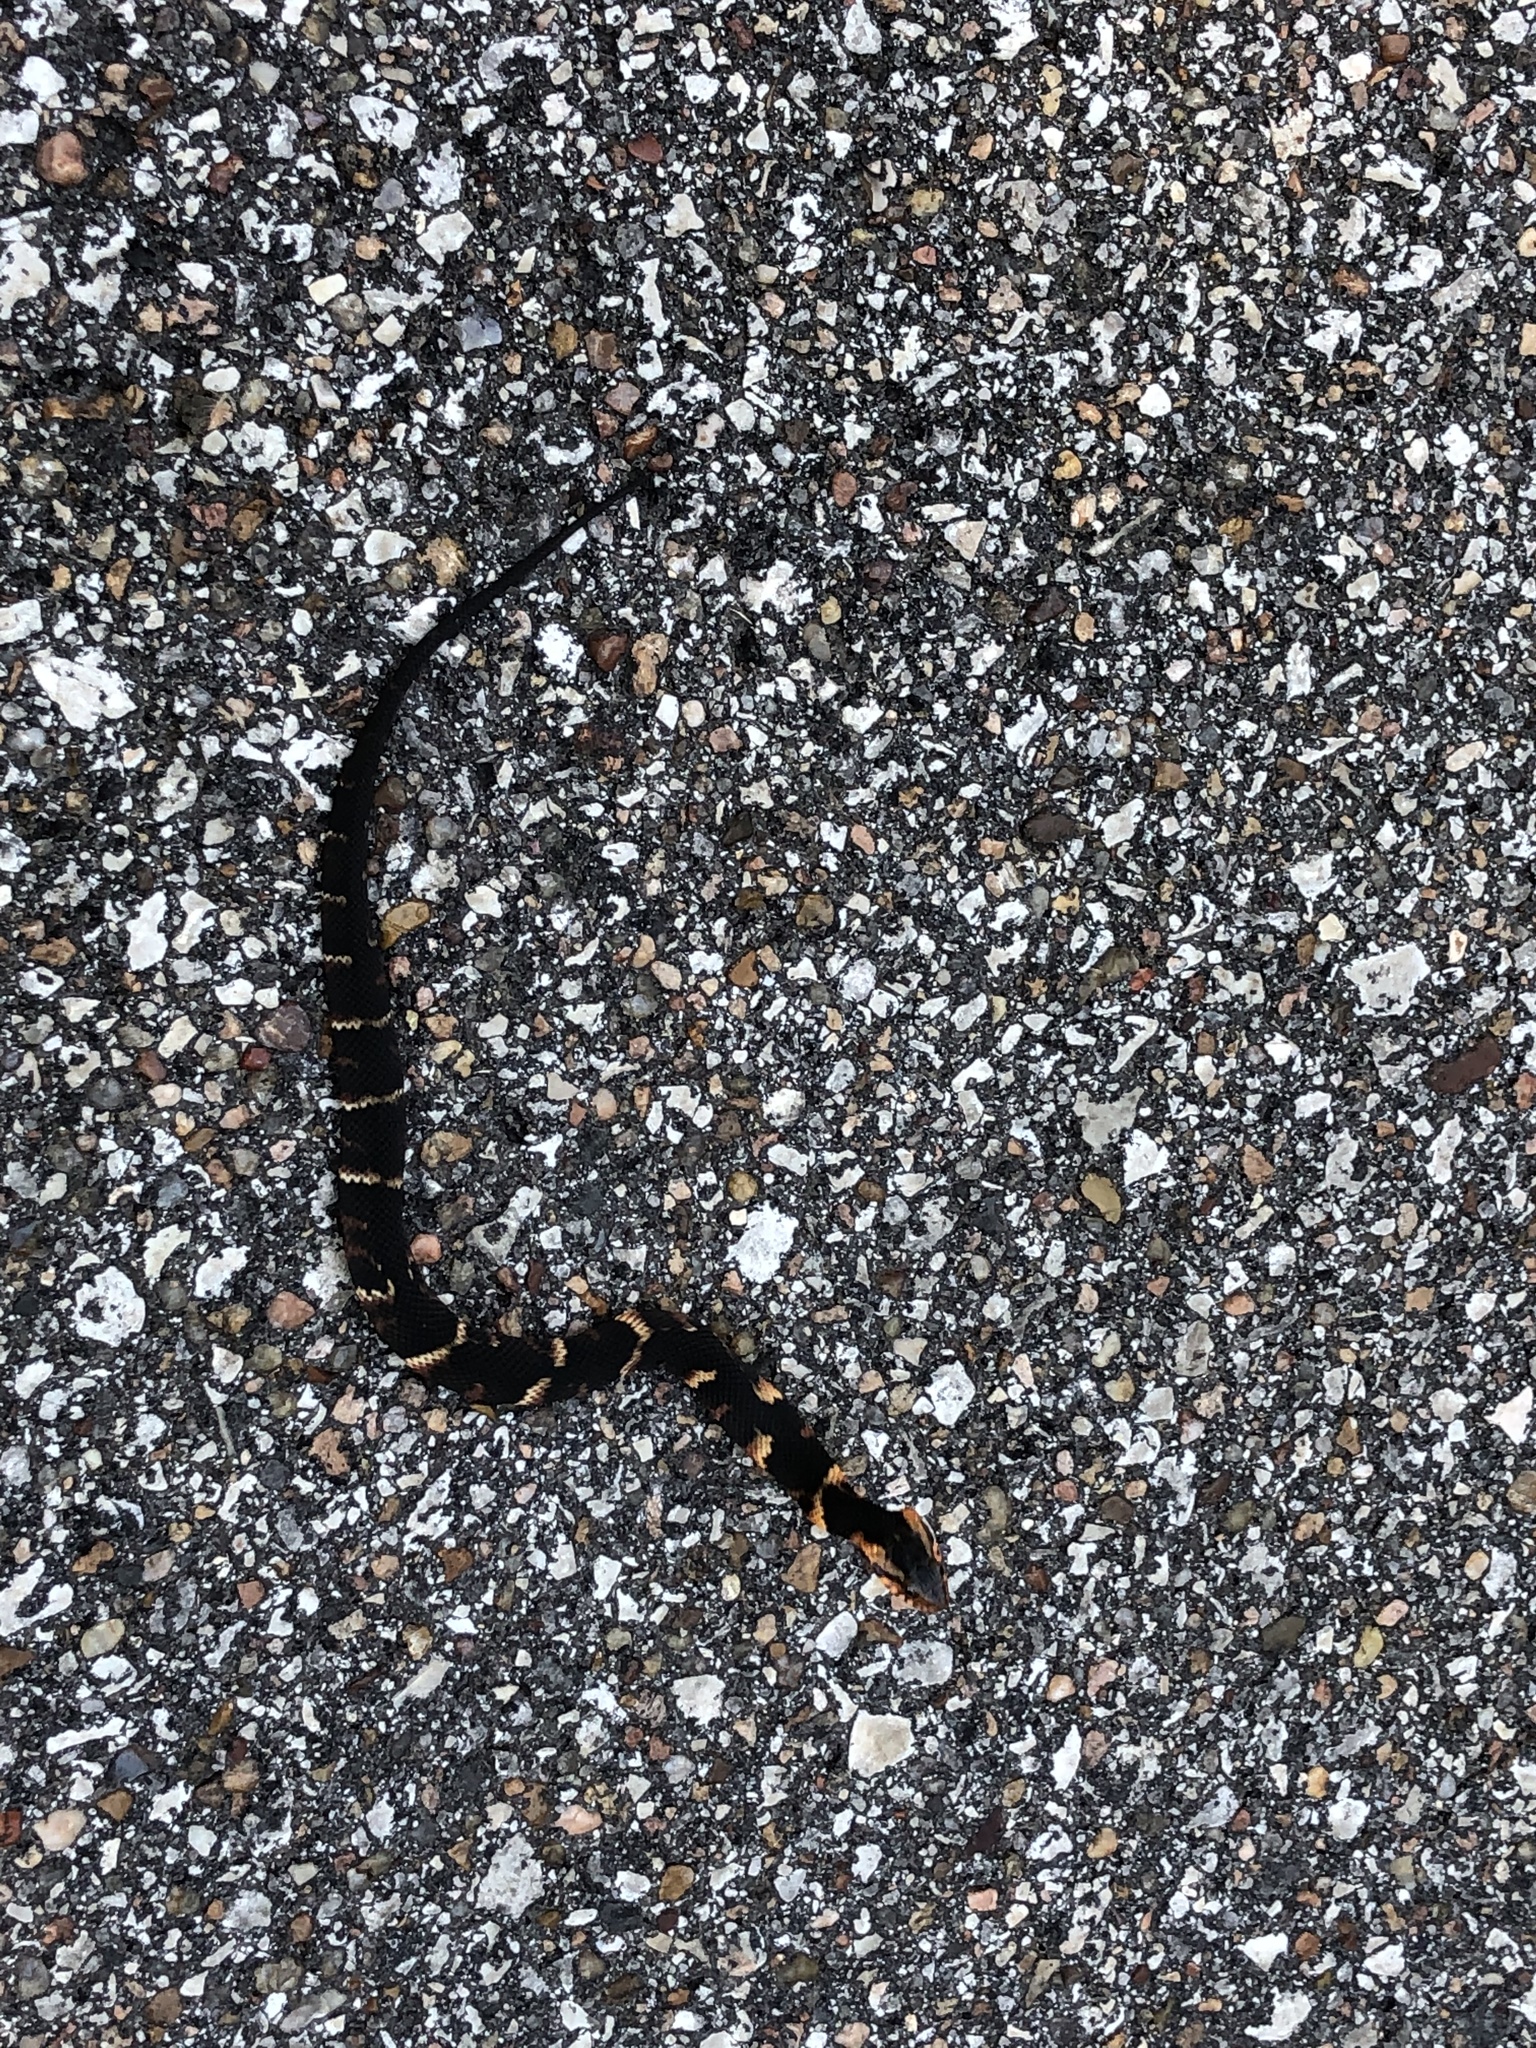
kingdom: Animalia
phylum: Chordata
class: Squamata
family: Colubridae
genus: Nerodia
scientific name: Nerodia fasciata
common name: Southern water snake
